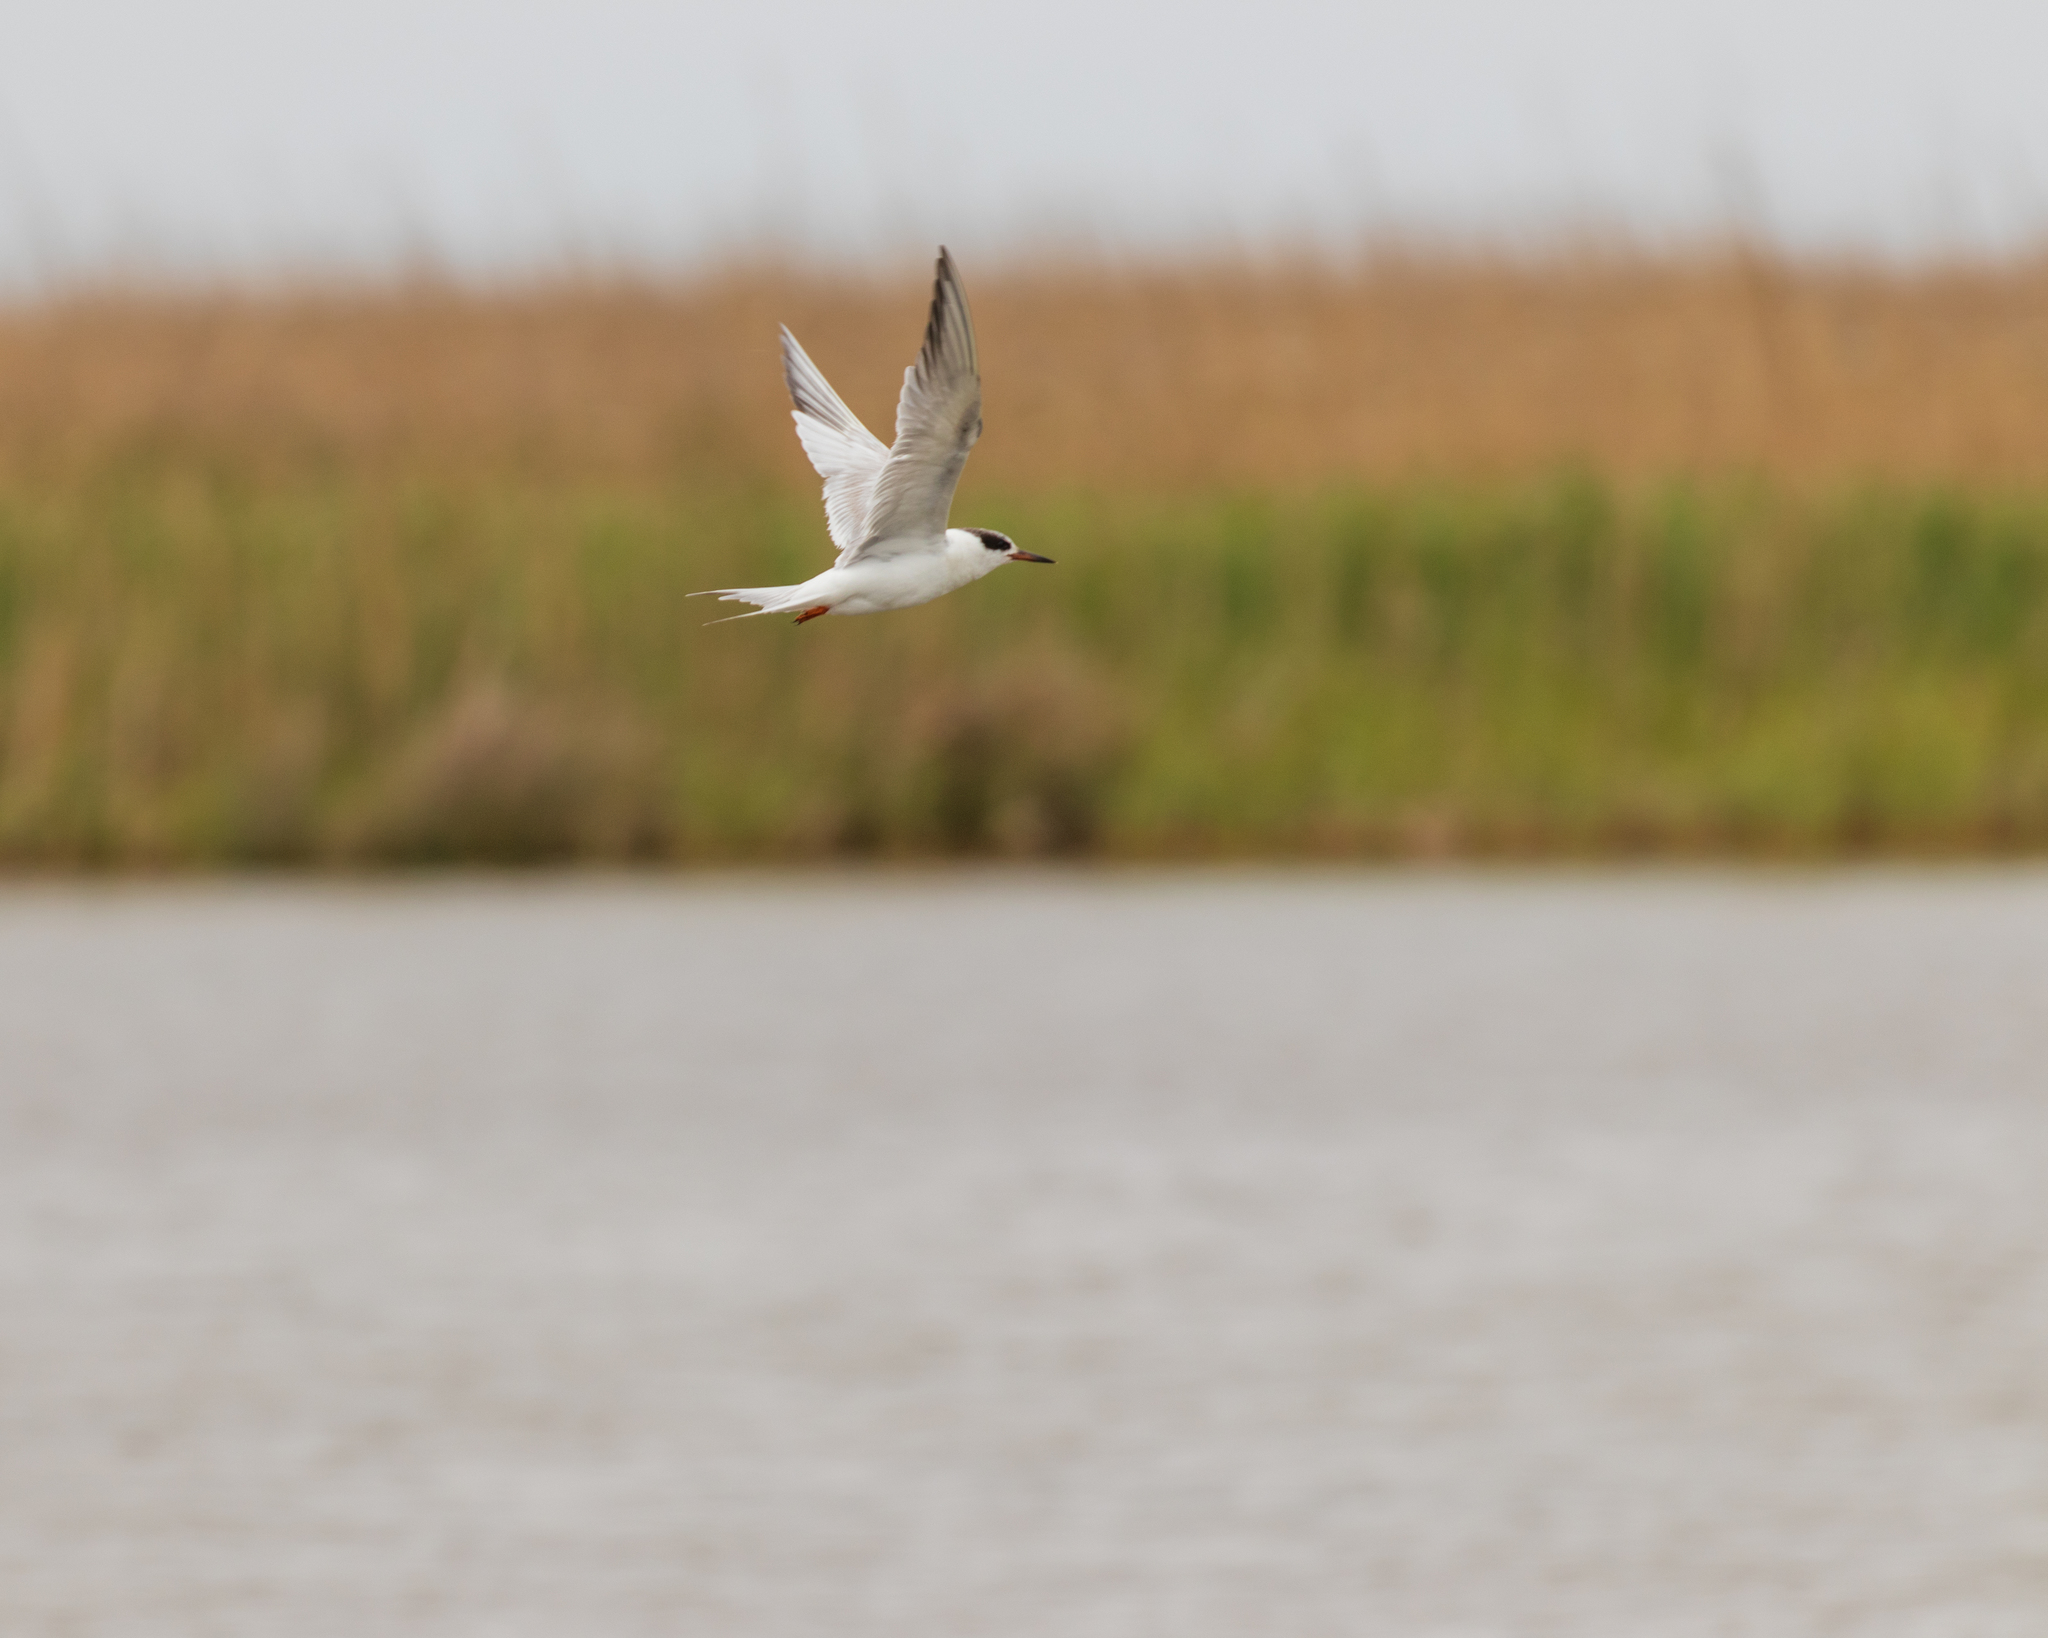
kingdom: Animalia
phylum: Chordata
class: Aves
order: Charadriiformes
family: Laridae
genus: Sterna
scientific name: Sterna forsteri
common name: Forster's tern
